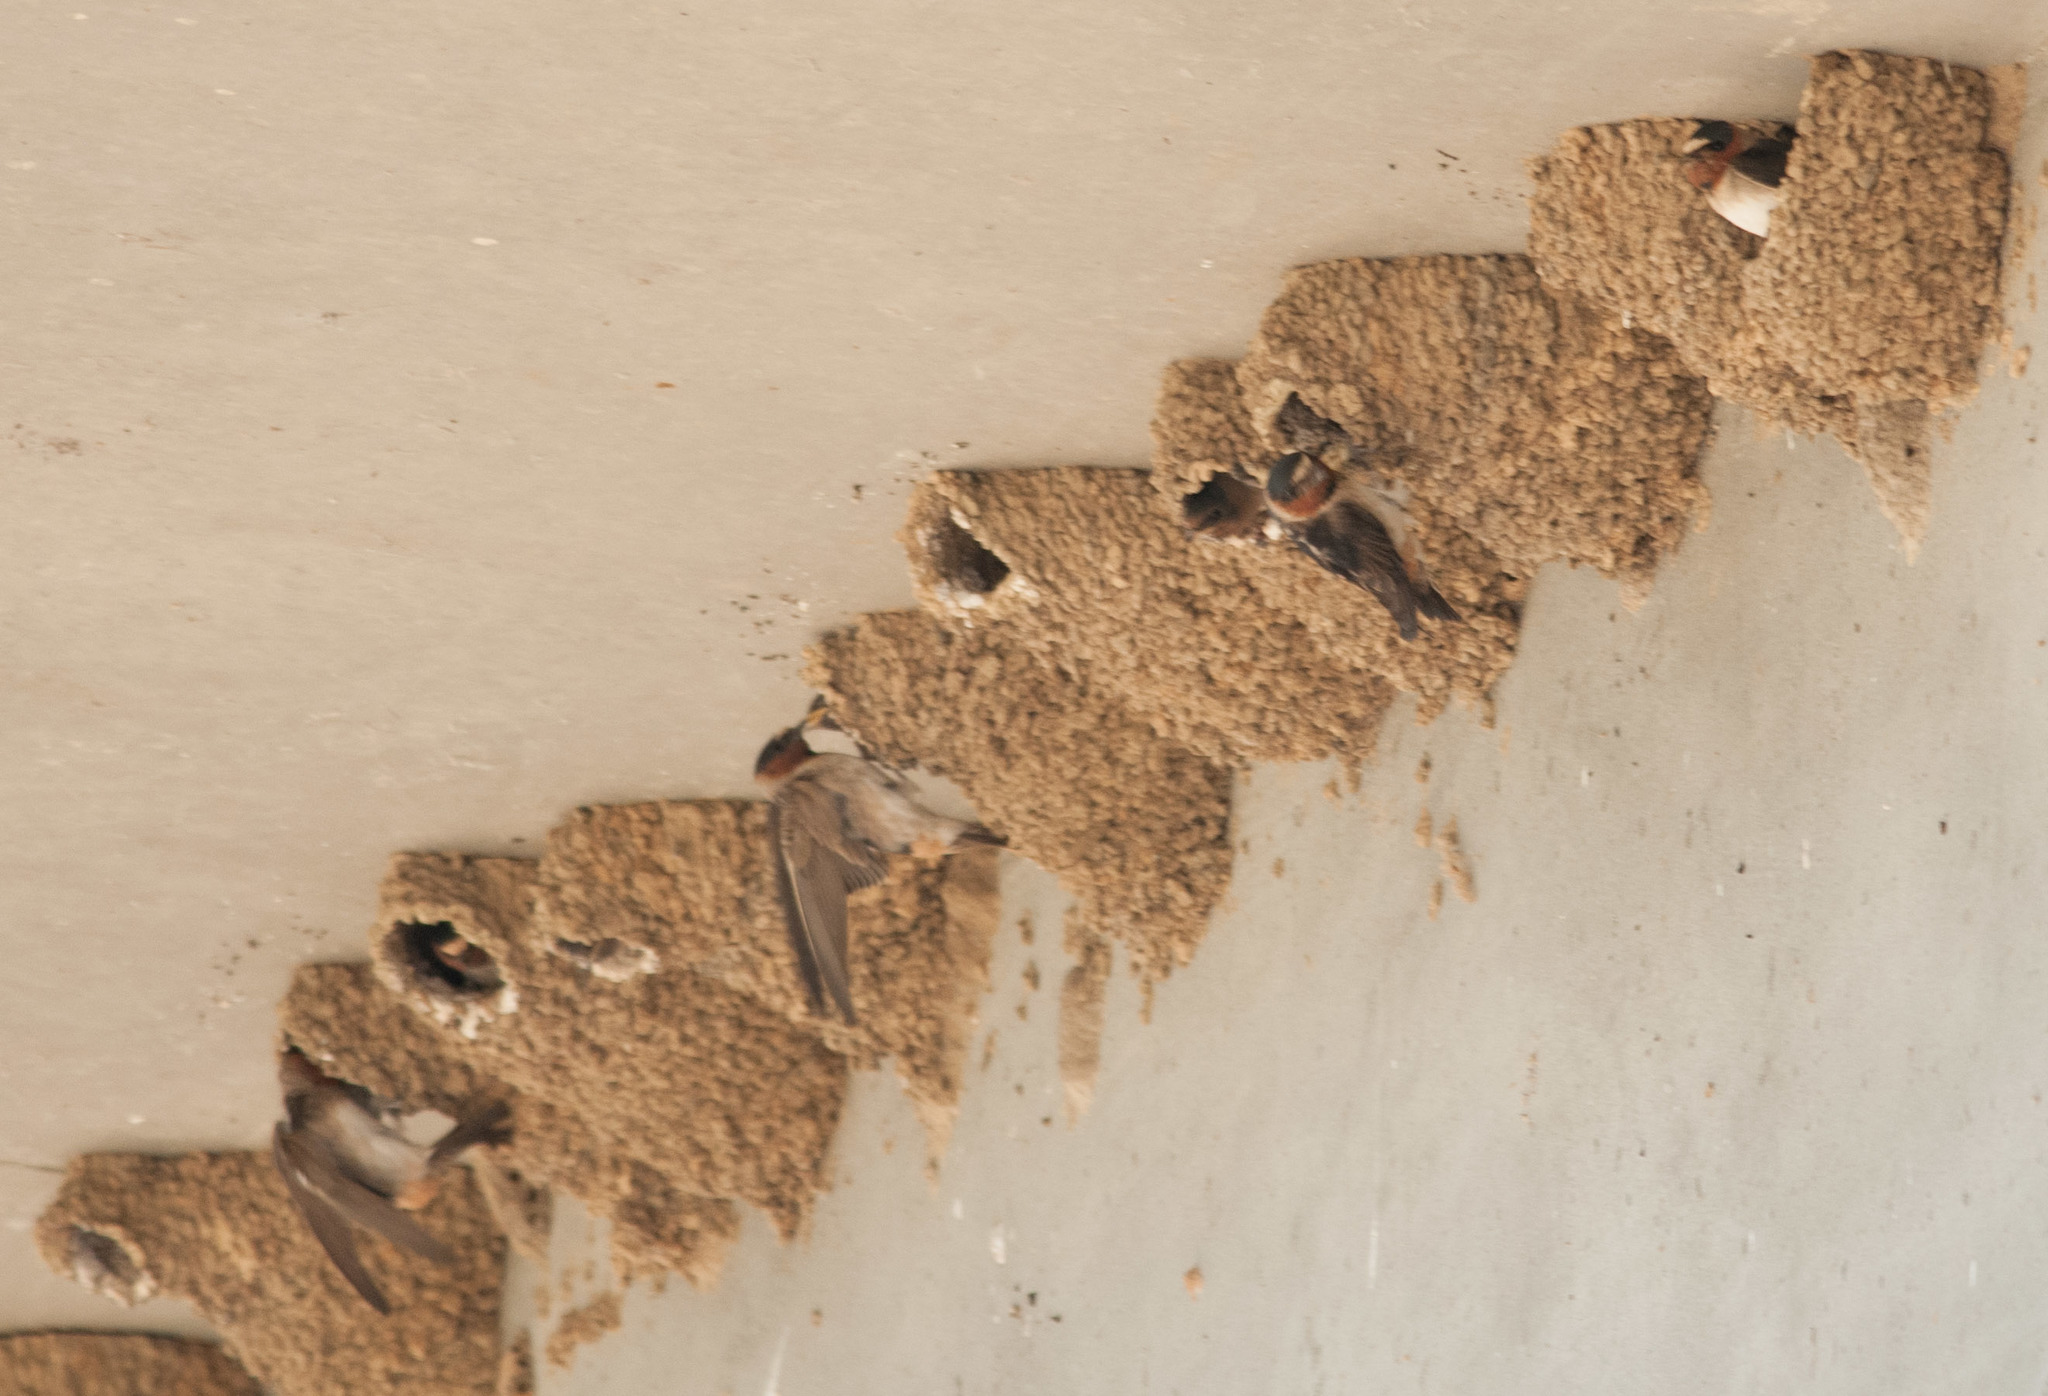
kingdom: Animalia
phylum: Chordata
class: Aves
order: Passeriformes
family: Hirundinidae
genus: Petrochelidon
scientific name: Petrochelidon pyrrhonota
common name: American cliff swallow
